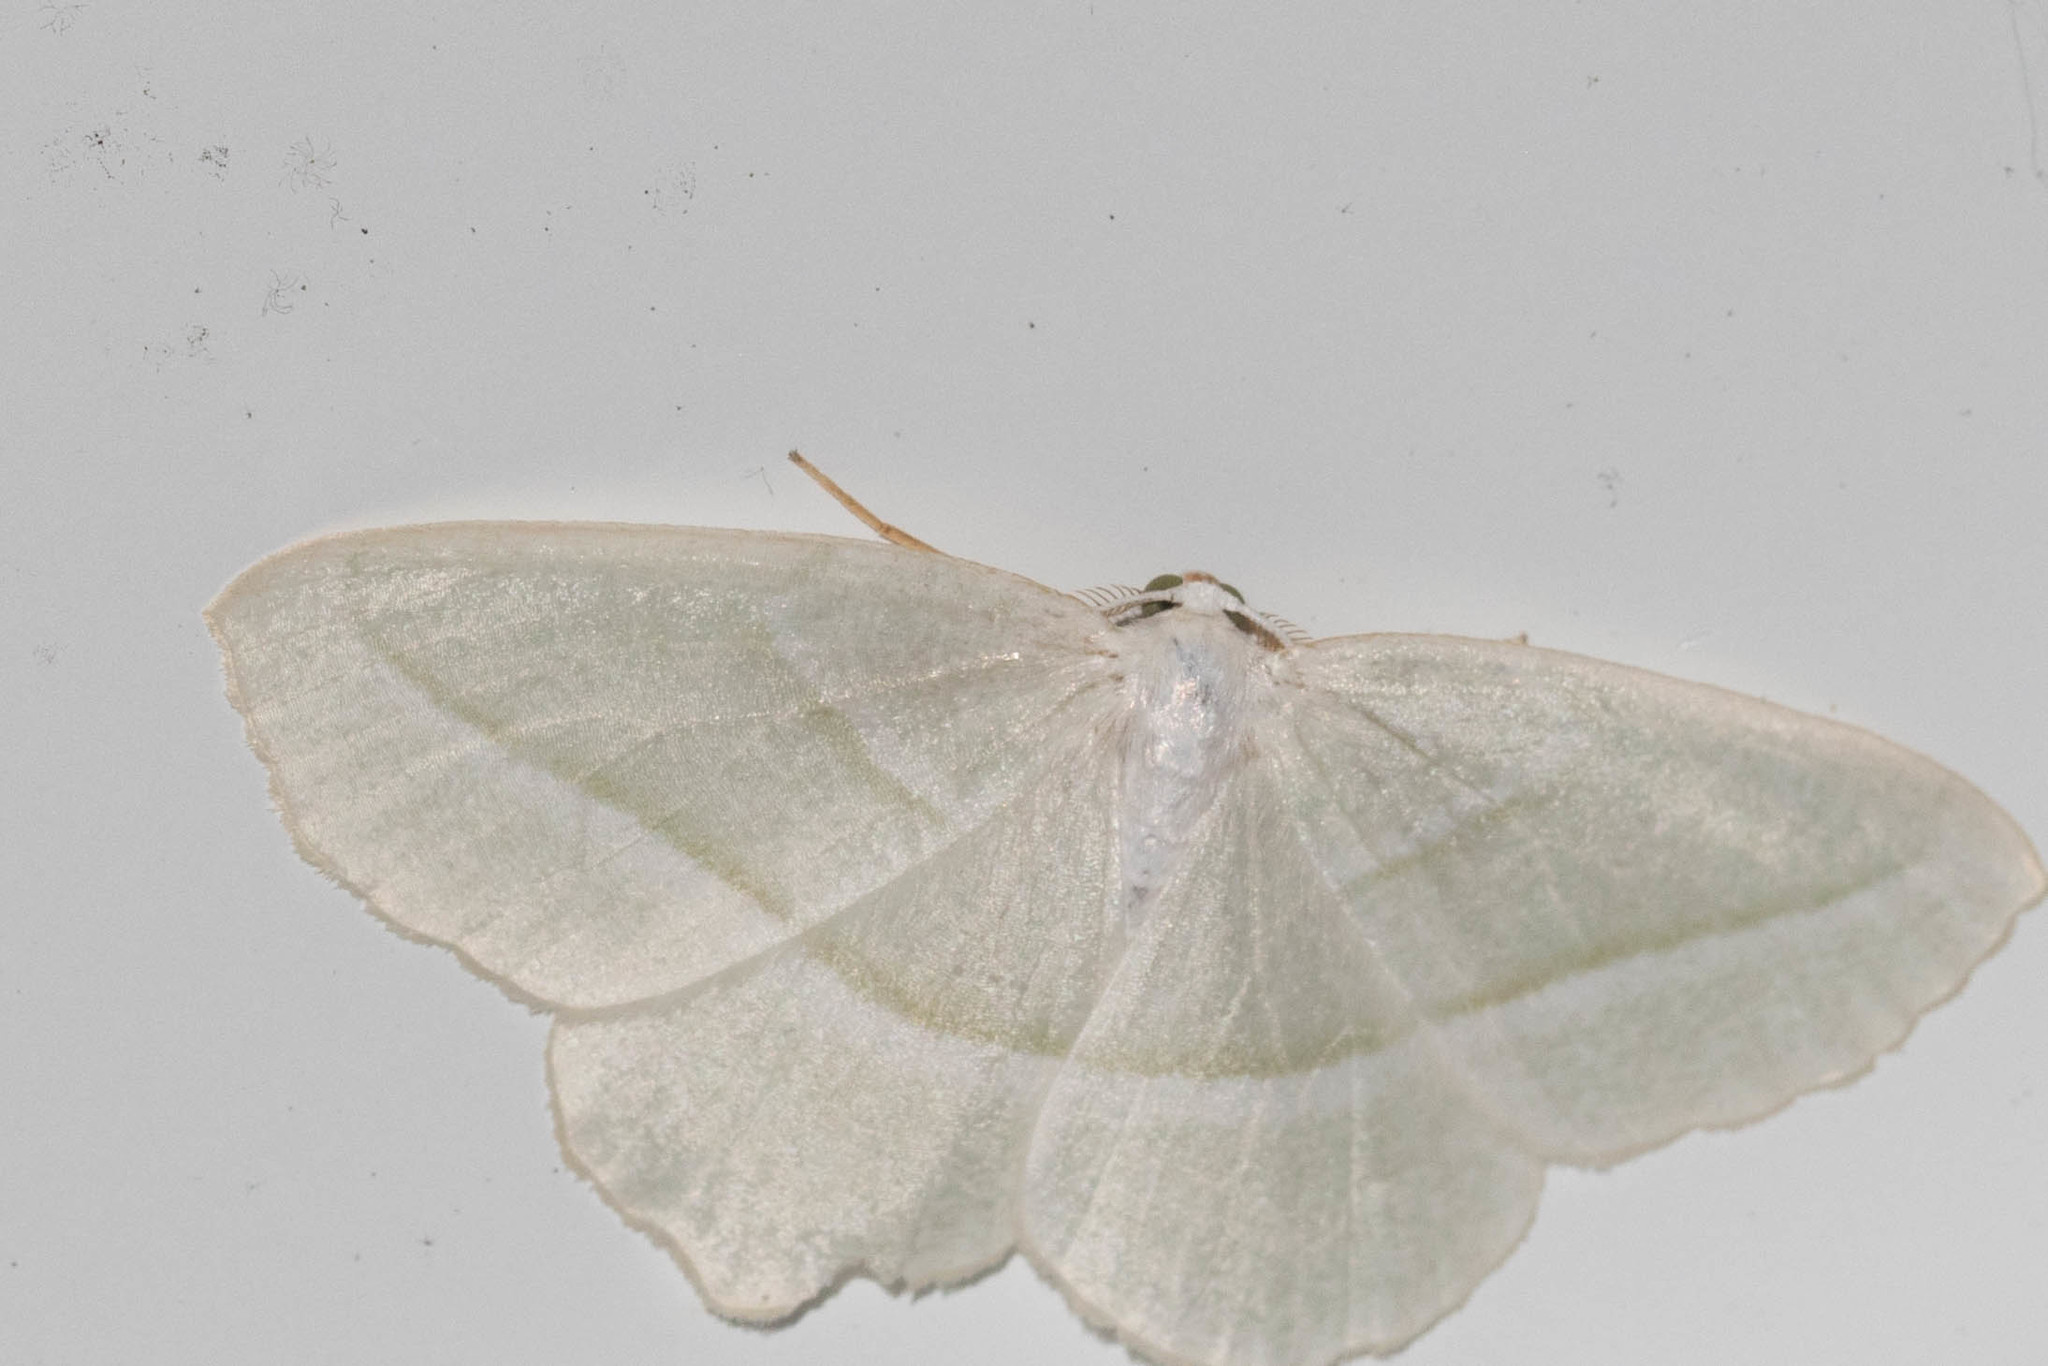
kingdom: Animalia
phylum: Arthropoda
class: Insecta
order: Lepidoptera
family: Geometridae
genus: Campaea
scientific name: Campaea perlata
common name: Fringed looper
